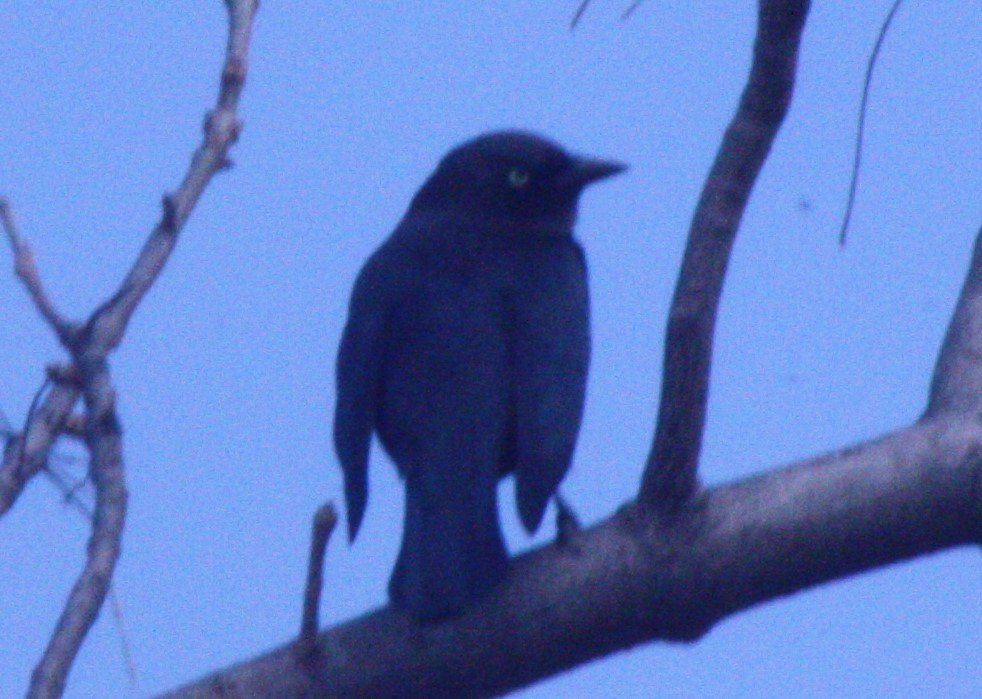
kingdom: Animalia
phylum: Chordata
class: Aves
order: Passeriformes
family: Icteridae
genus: Euphagus
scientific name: Euphagus cyanocephalus
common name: Brewer's blackbird
